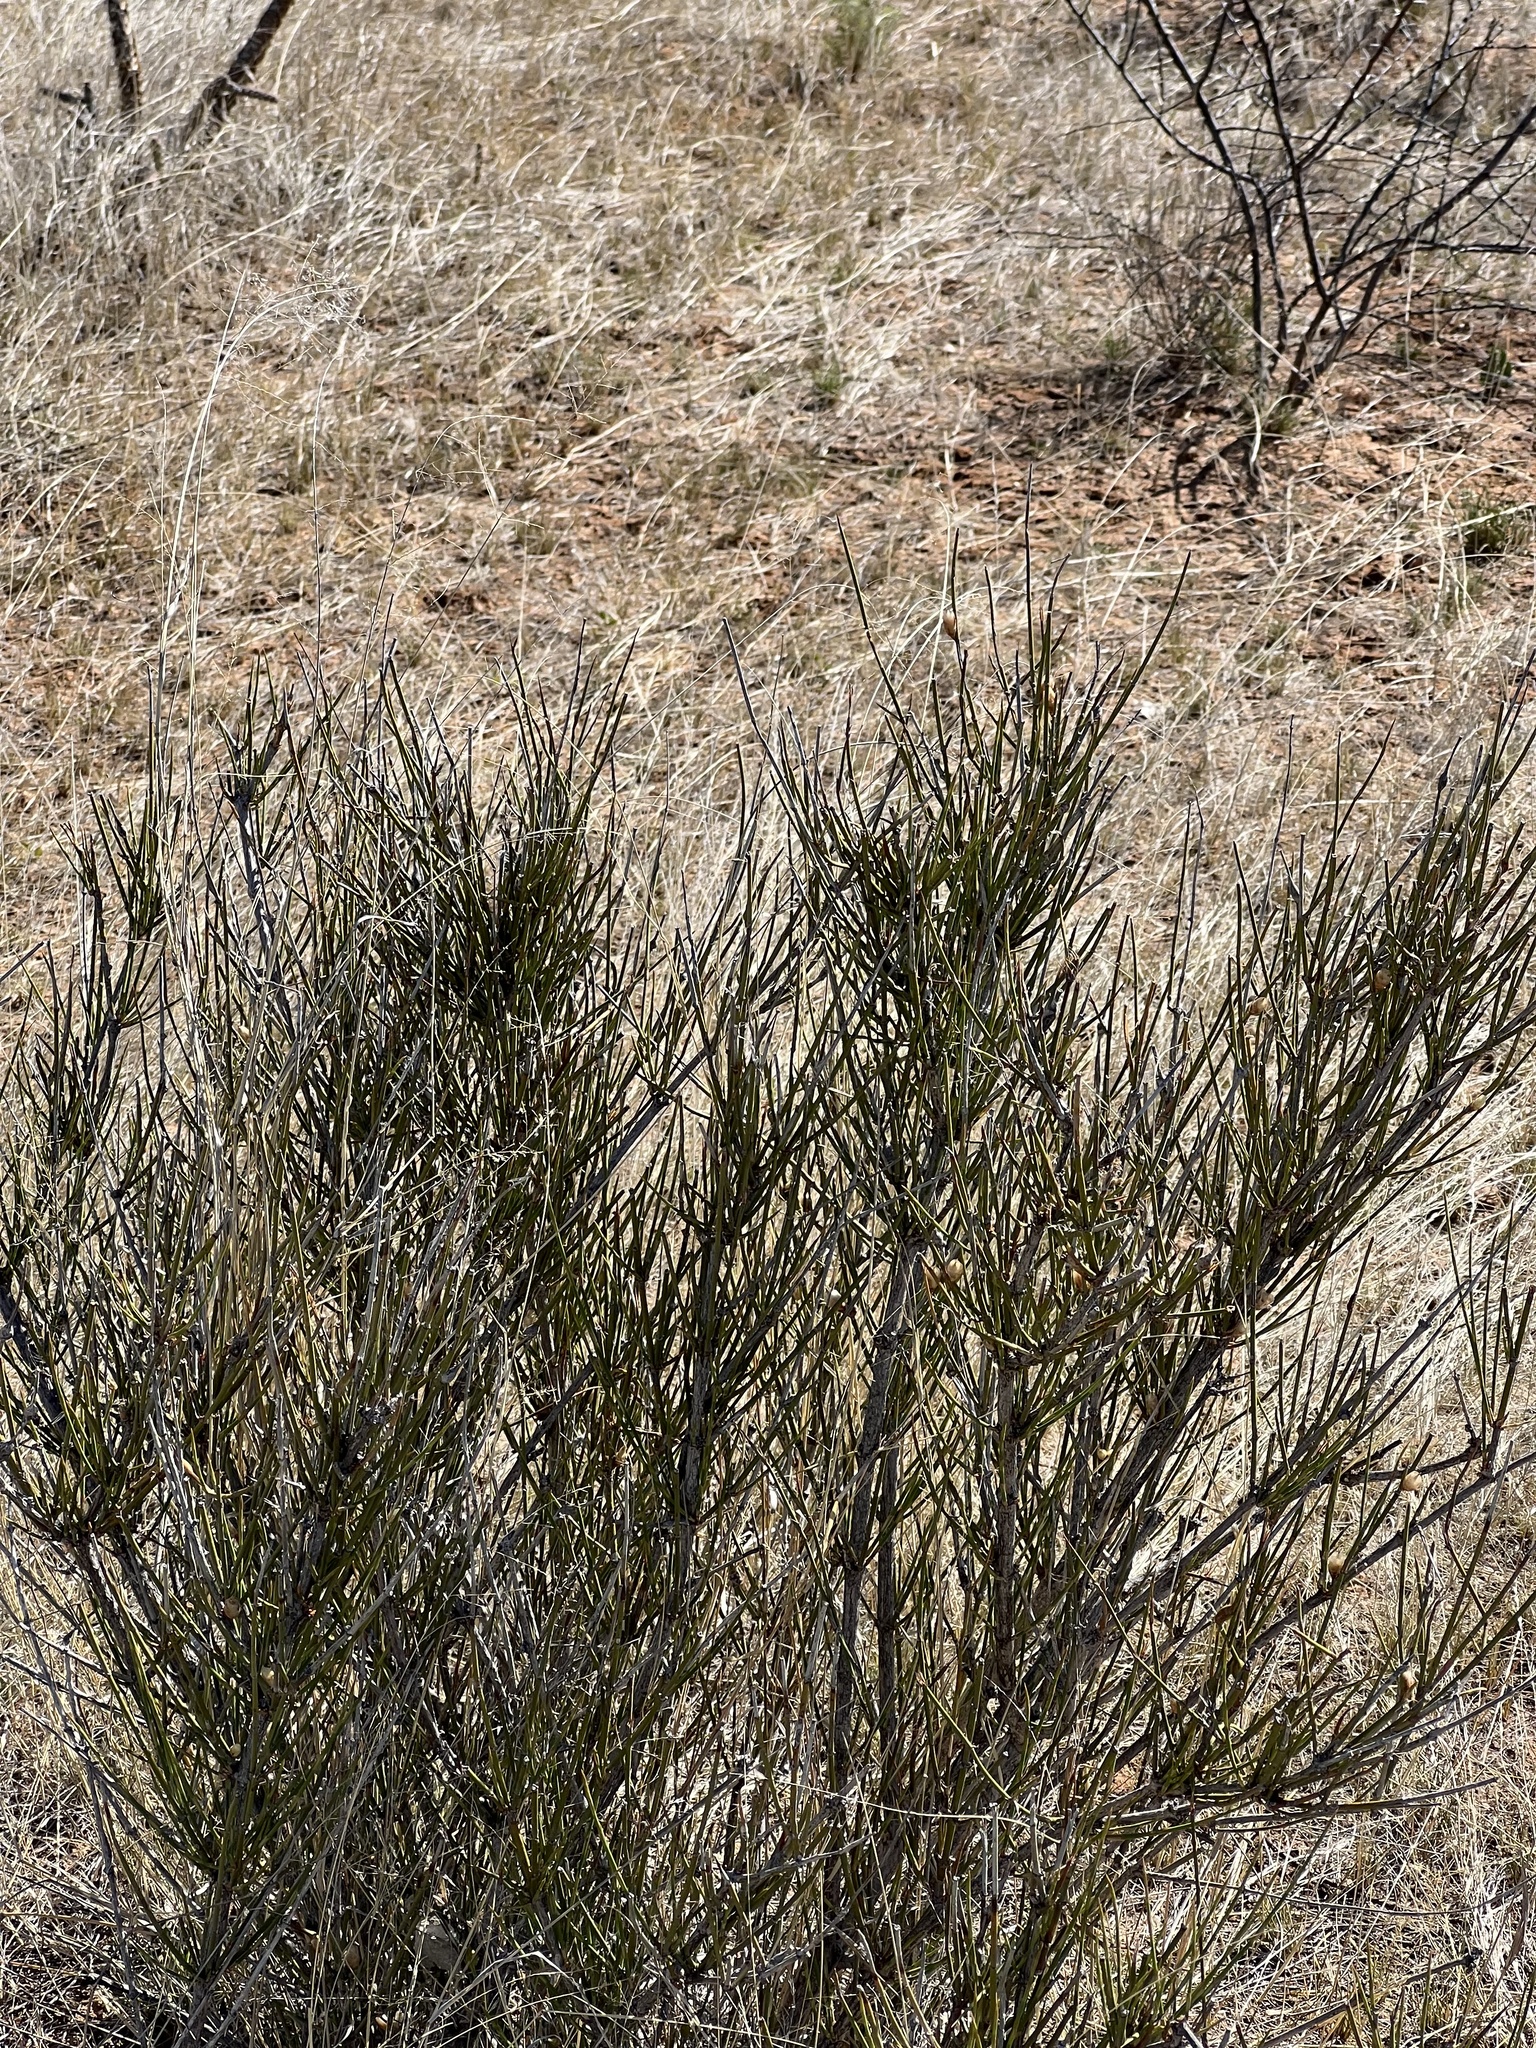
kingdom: Plantae
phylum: Tracheophyta
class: Gnetopsida
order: Ephedrales
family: Ephedraceae
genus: Ephedra
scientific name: Ephedra trifurca
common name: Mexican-tea
